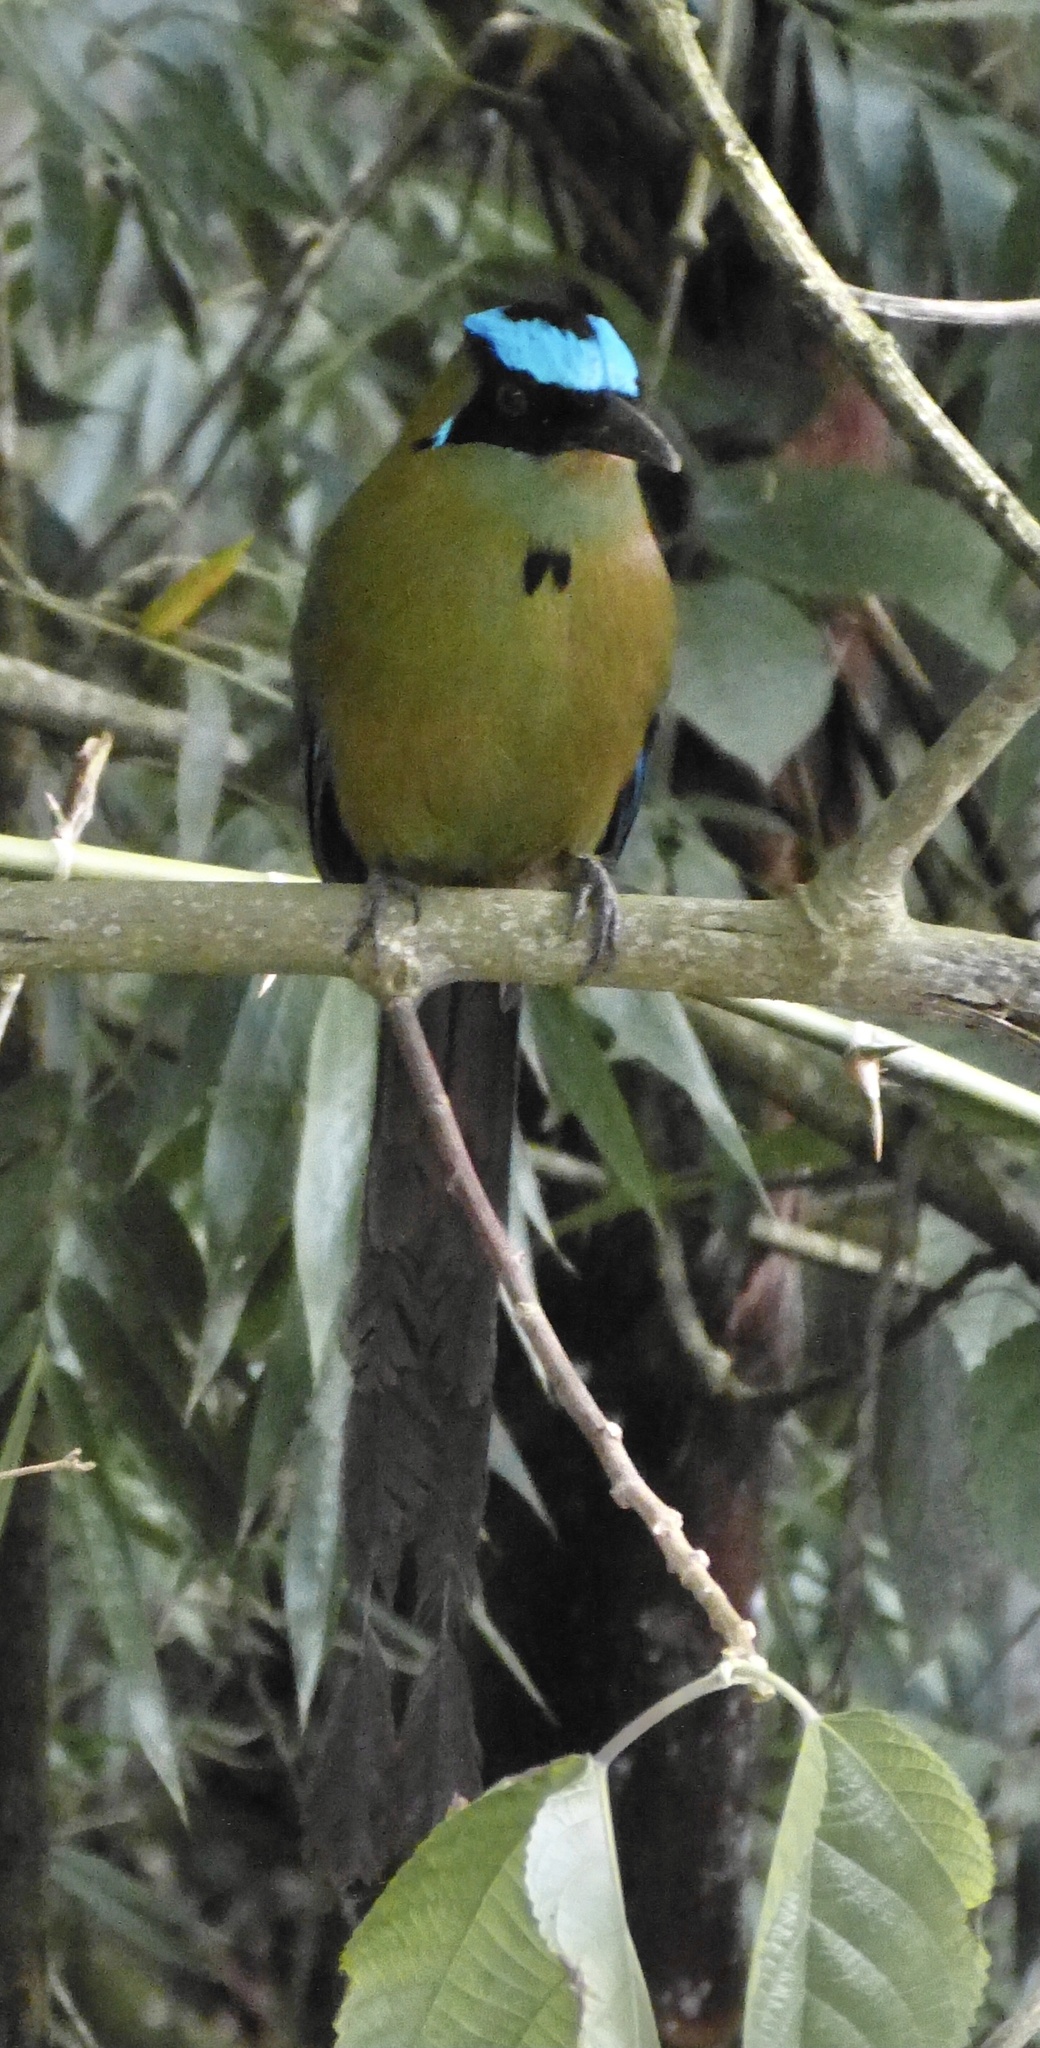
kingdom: Animalia
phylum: Chordata
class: Aves
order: Coraciiformes
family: Momotidae
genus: Momotus
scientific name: Momotus aequatorialis
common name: Andean motmot
